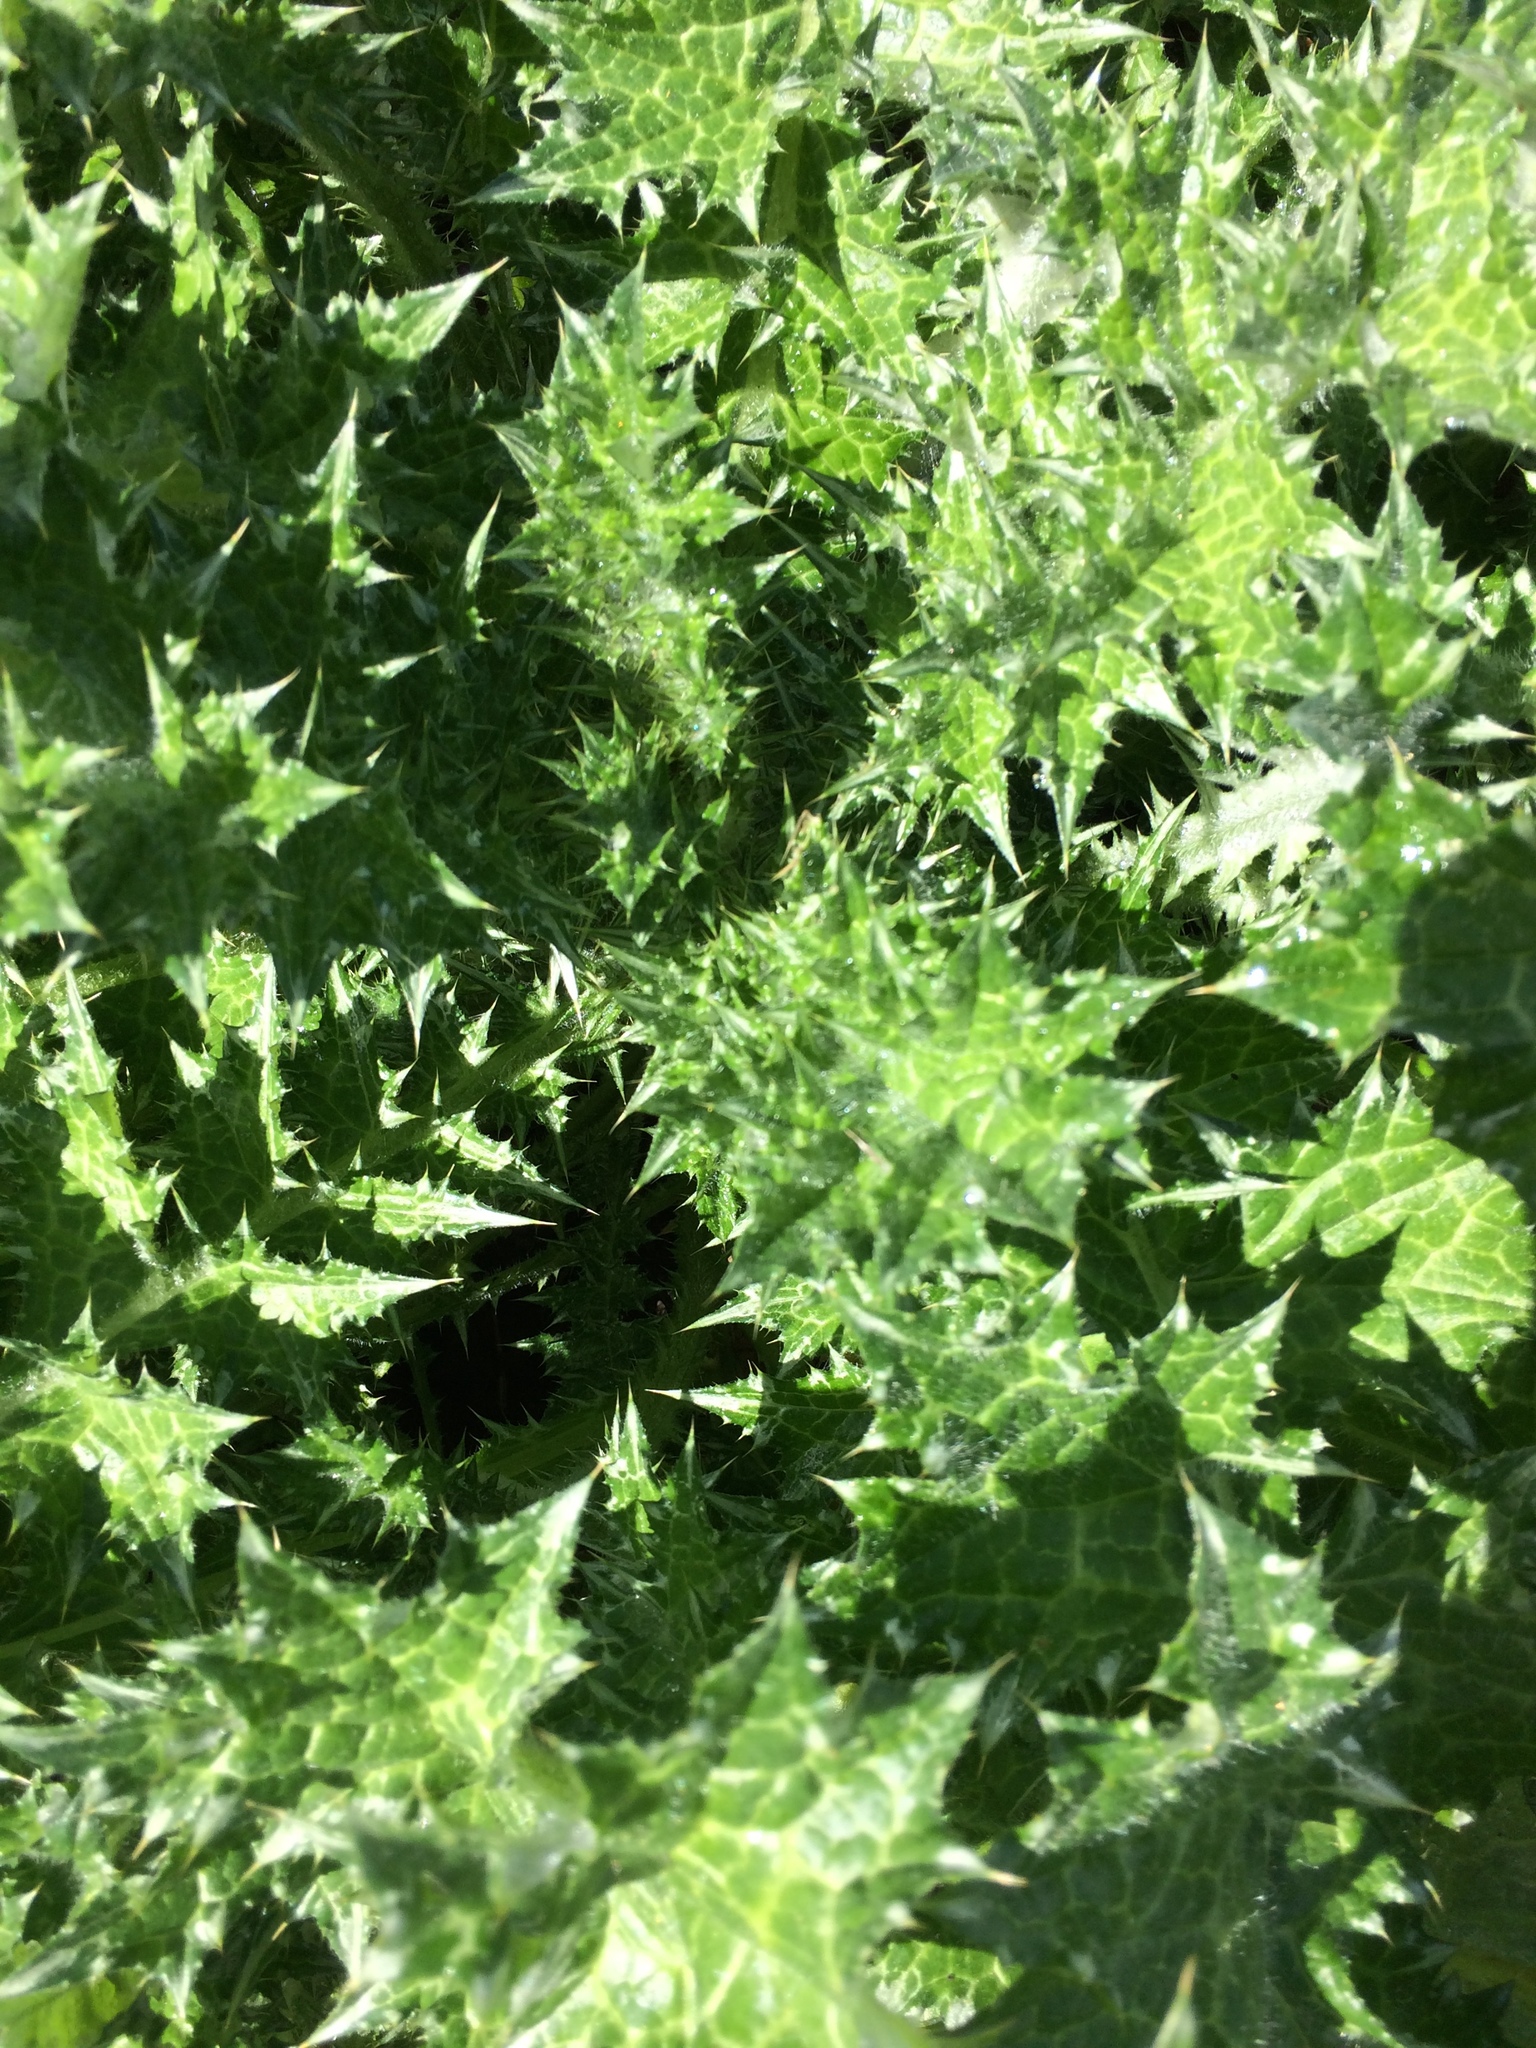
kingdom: Plantae
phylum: Tracheophyta
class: Magnoliopsida
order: Asterales
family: Asteraceae
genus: Carduus
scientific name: Carduus pycnocephalus
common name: Plymouth thistle
